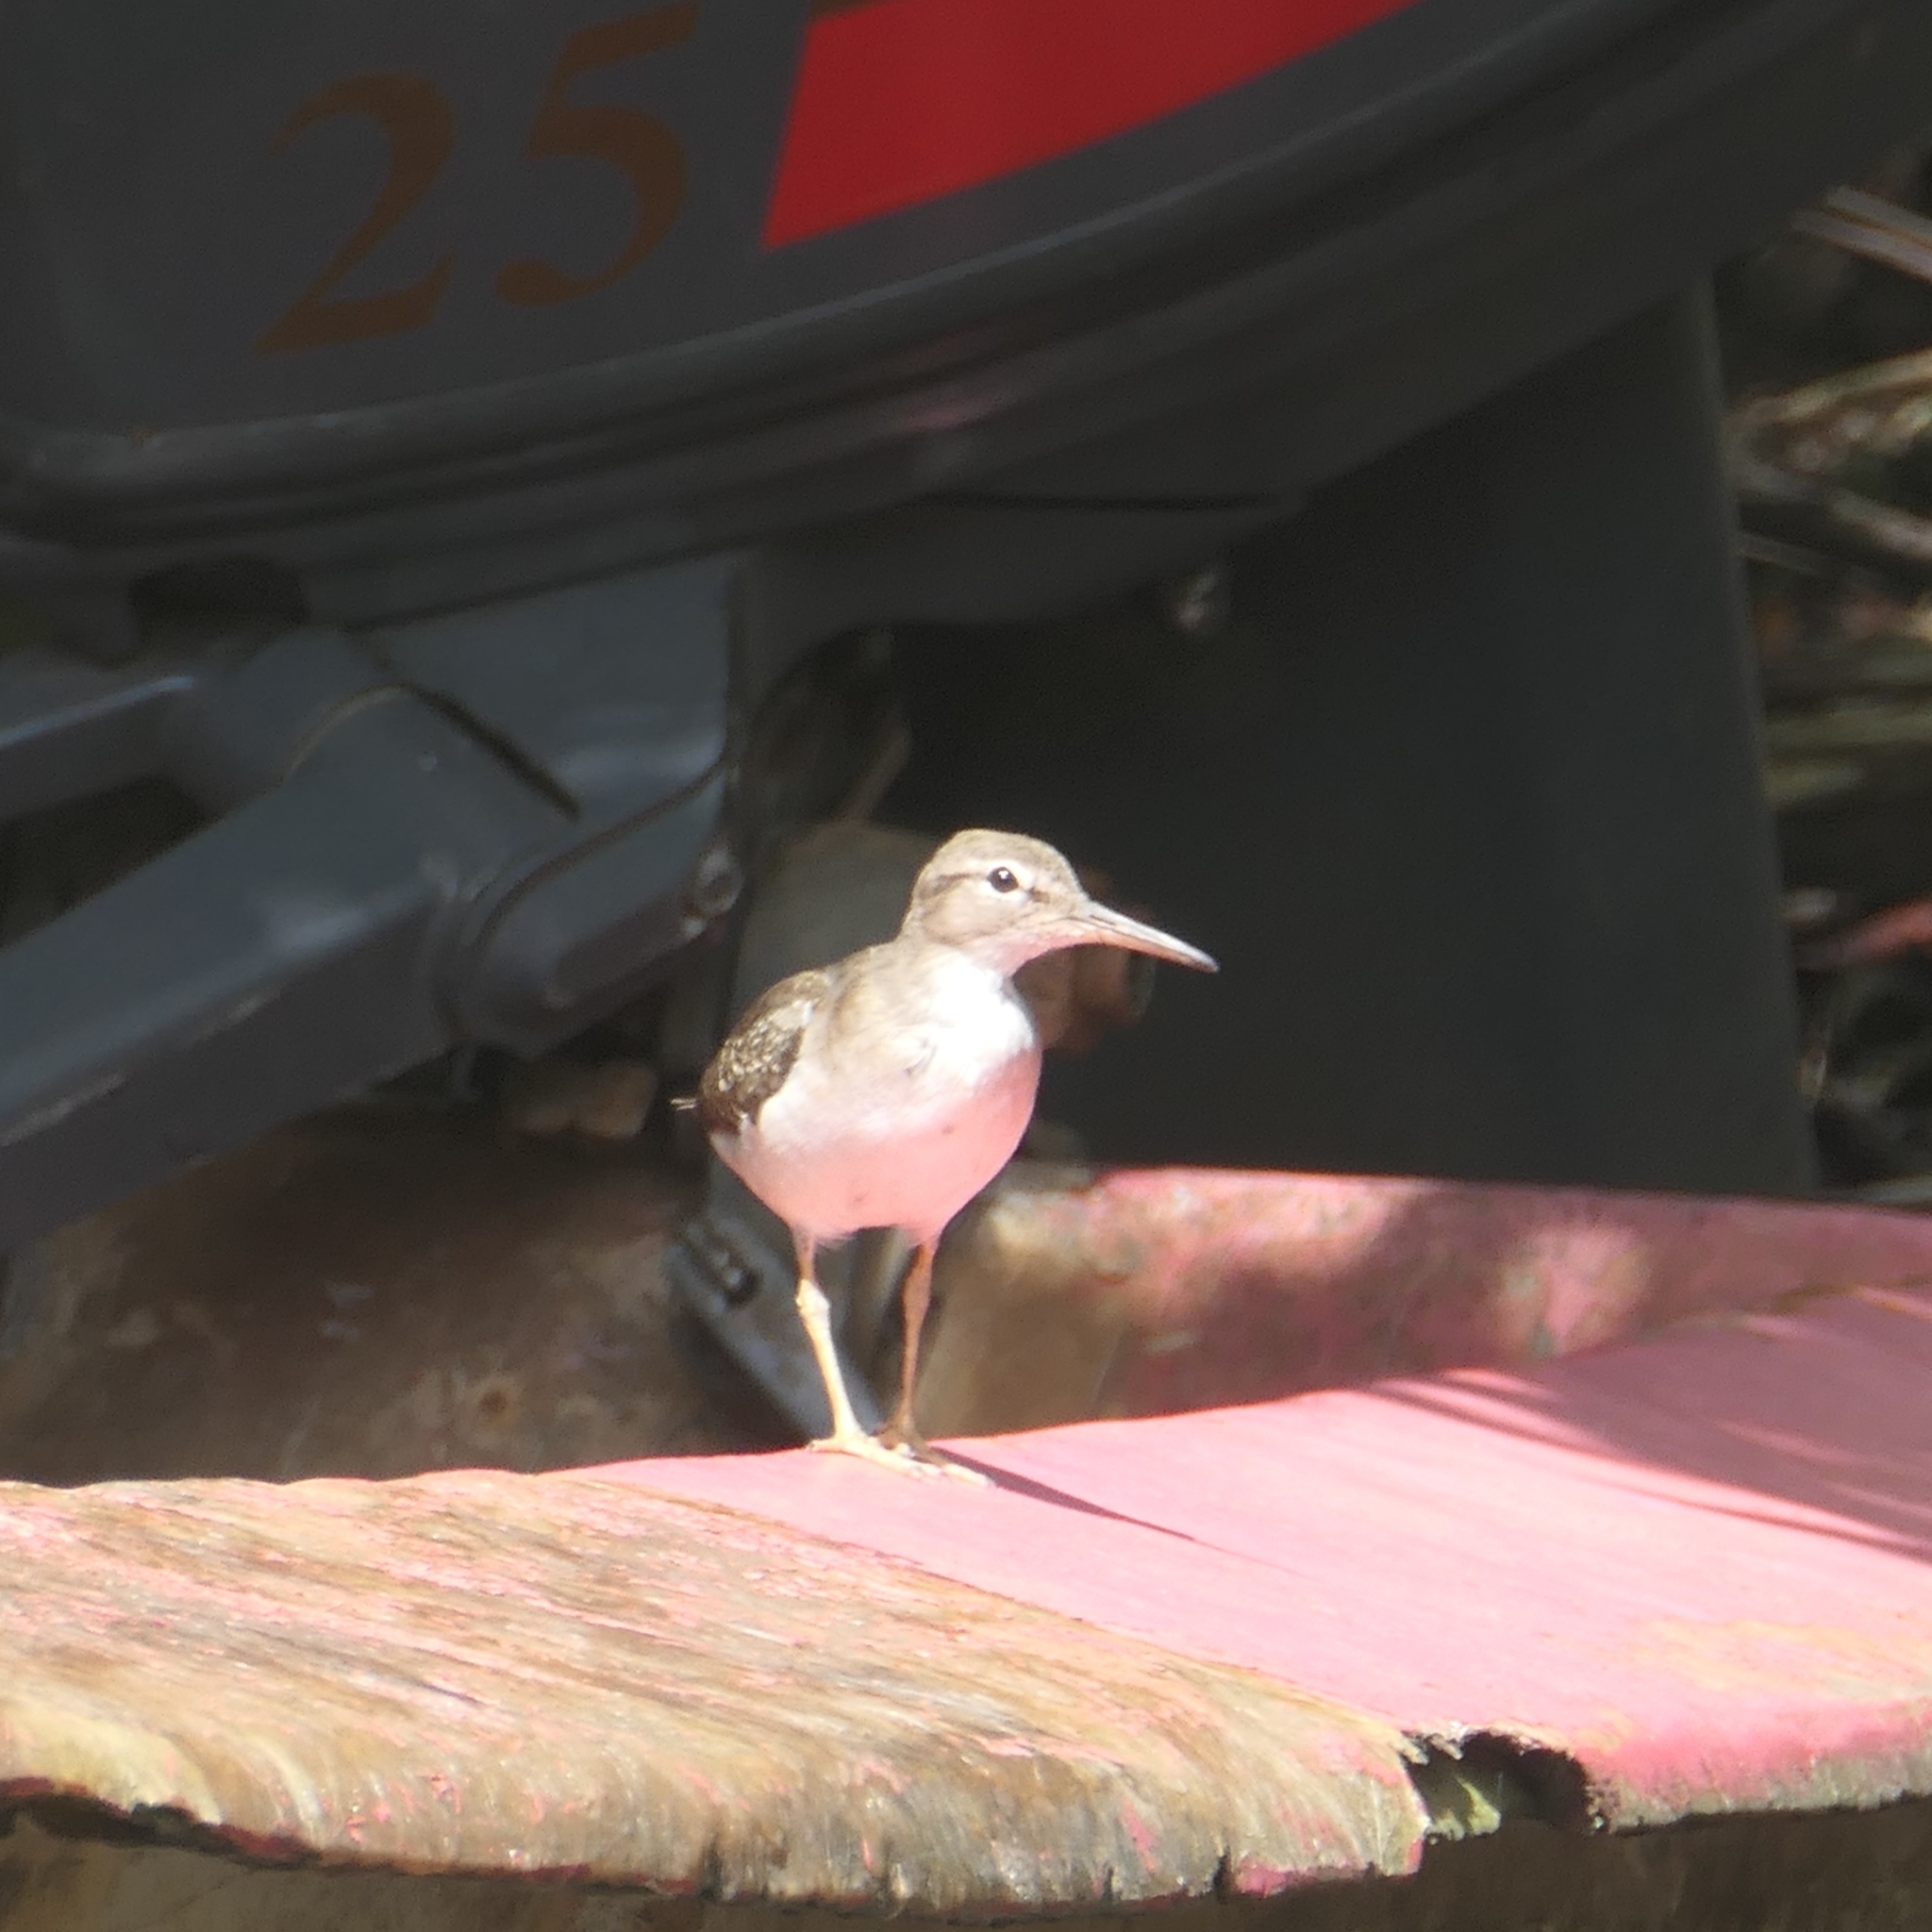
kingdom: Animalia
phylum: Chordata
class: Aves
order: Charadriiformes
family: Scolopacidae
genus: Actitis
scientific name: Actitis macularius
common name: Spotted sandpiper
